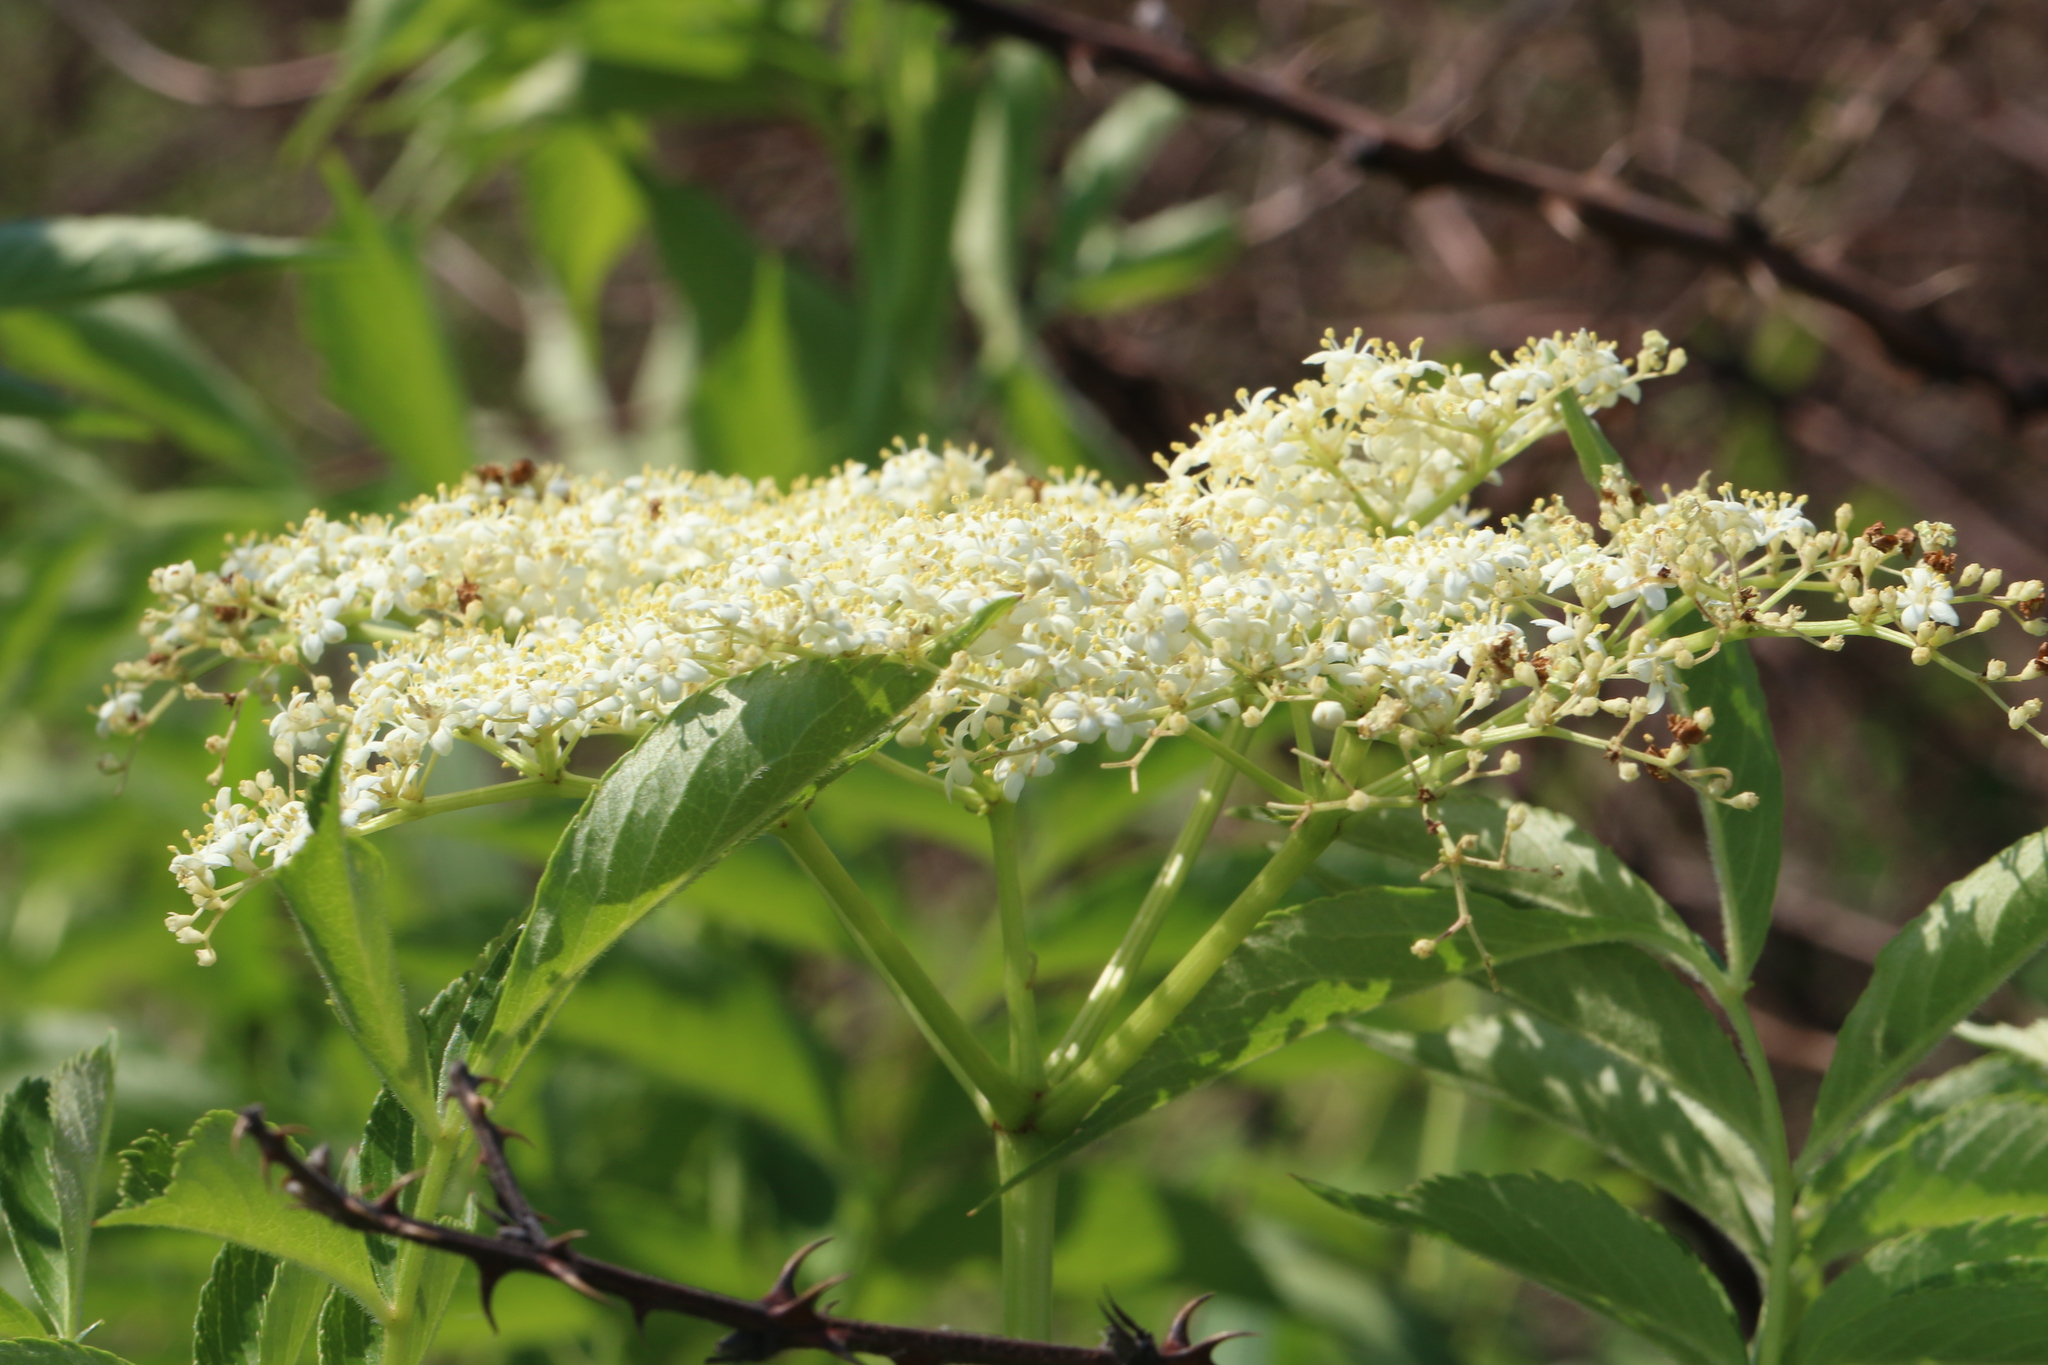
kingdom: Plantae
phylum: Tracheophyta
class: Magnoliopsida
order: Dipsacales
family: Viburnaceae
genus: Sambucus
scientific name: Sambucus canadensis
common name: American elder
